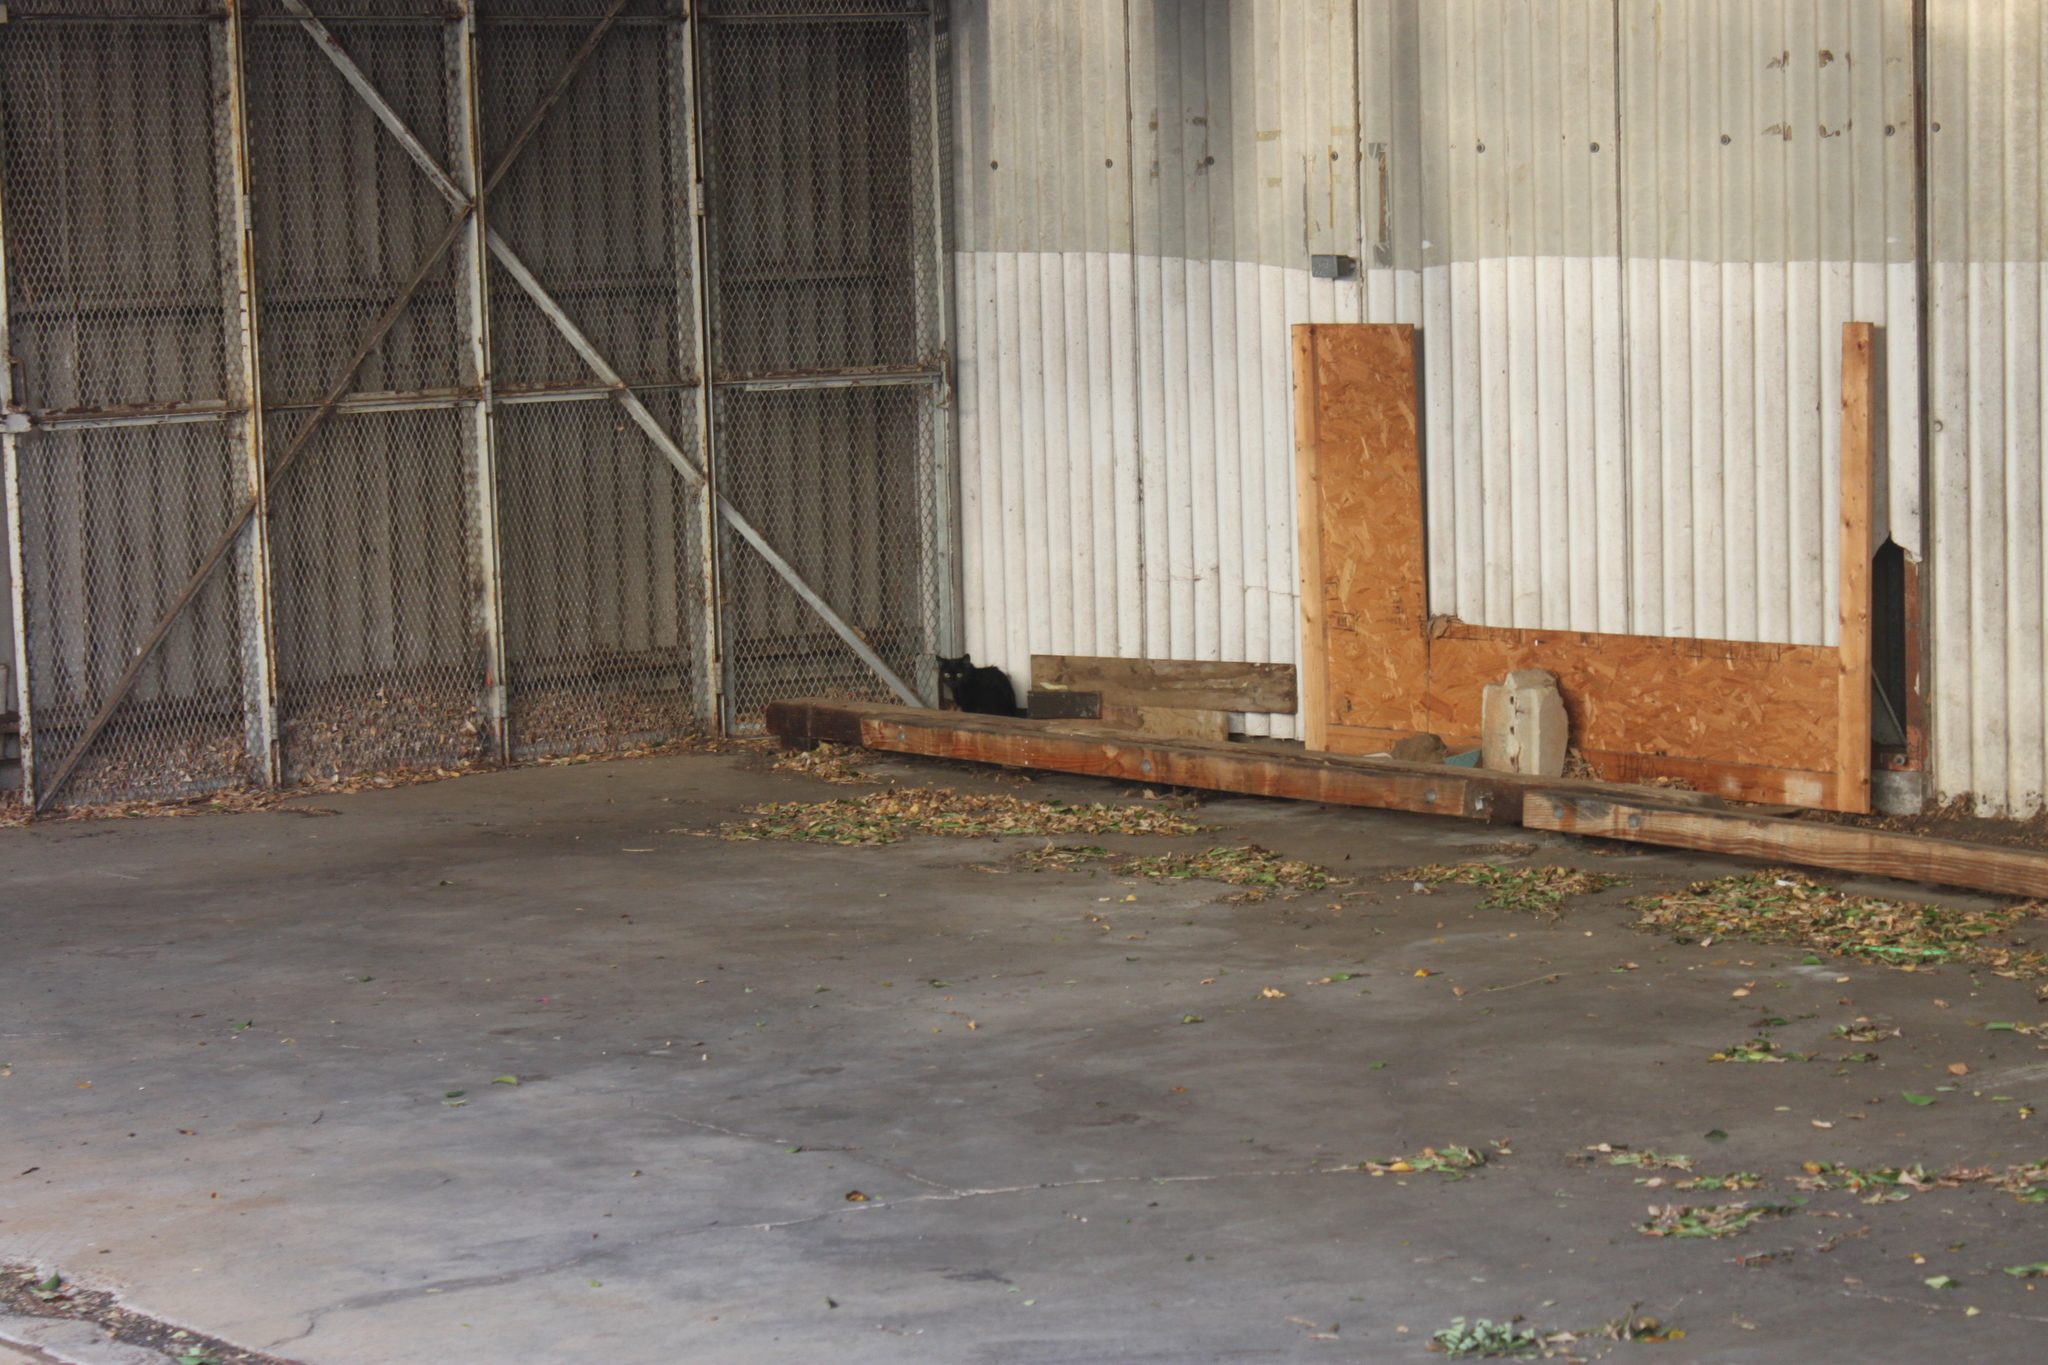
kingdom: Animalia
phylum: Chordata
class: Mammalia
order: Carnivora
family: Felidae
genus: Felis
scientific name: Felis catus
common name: Domestic cat
